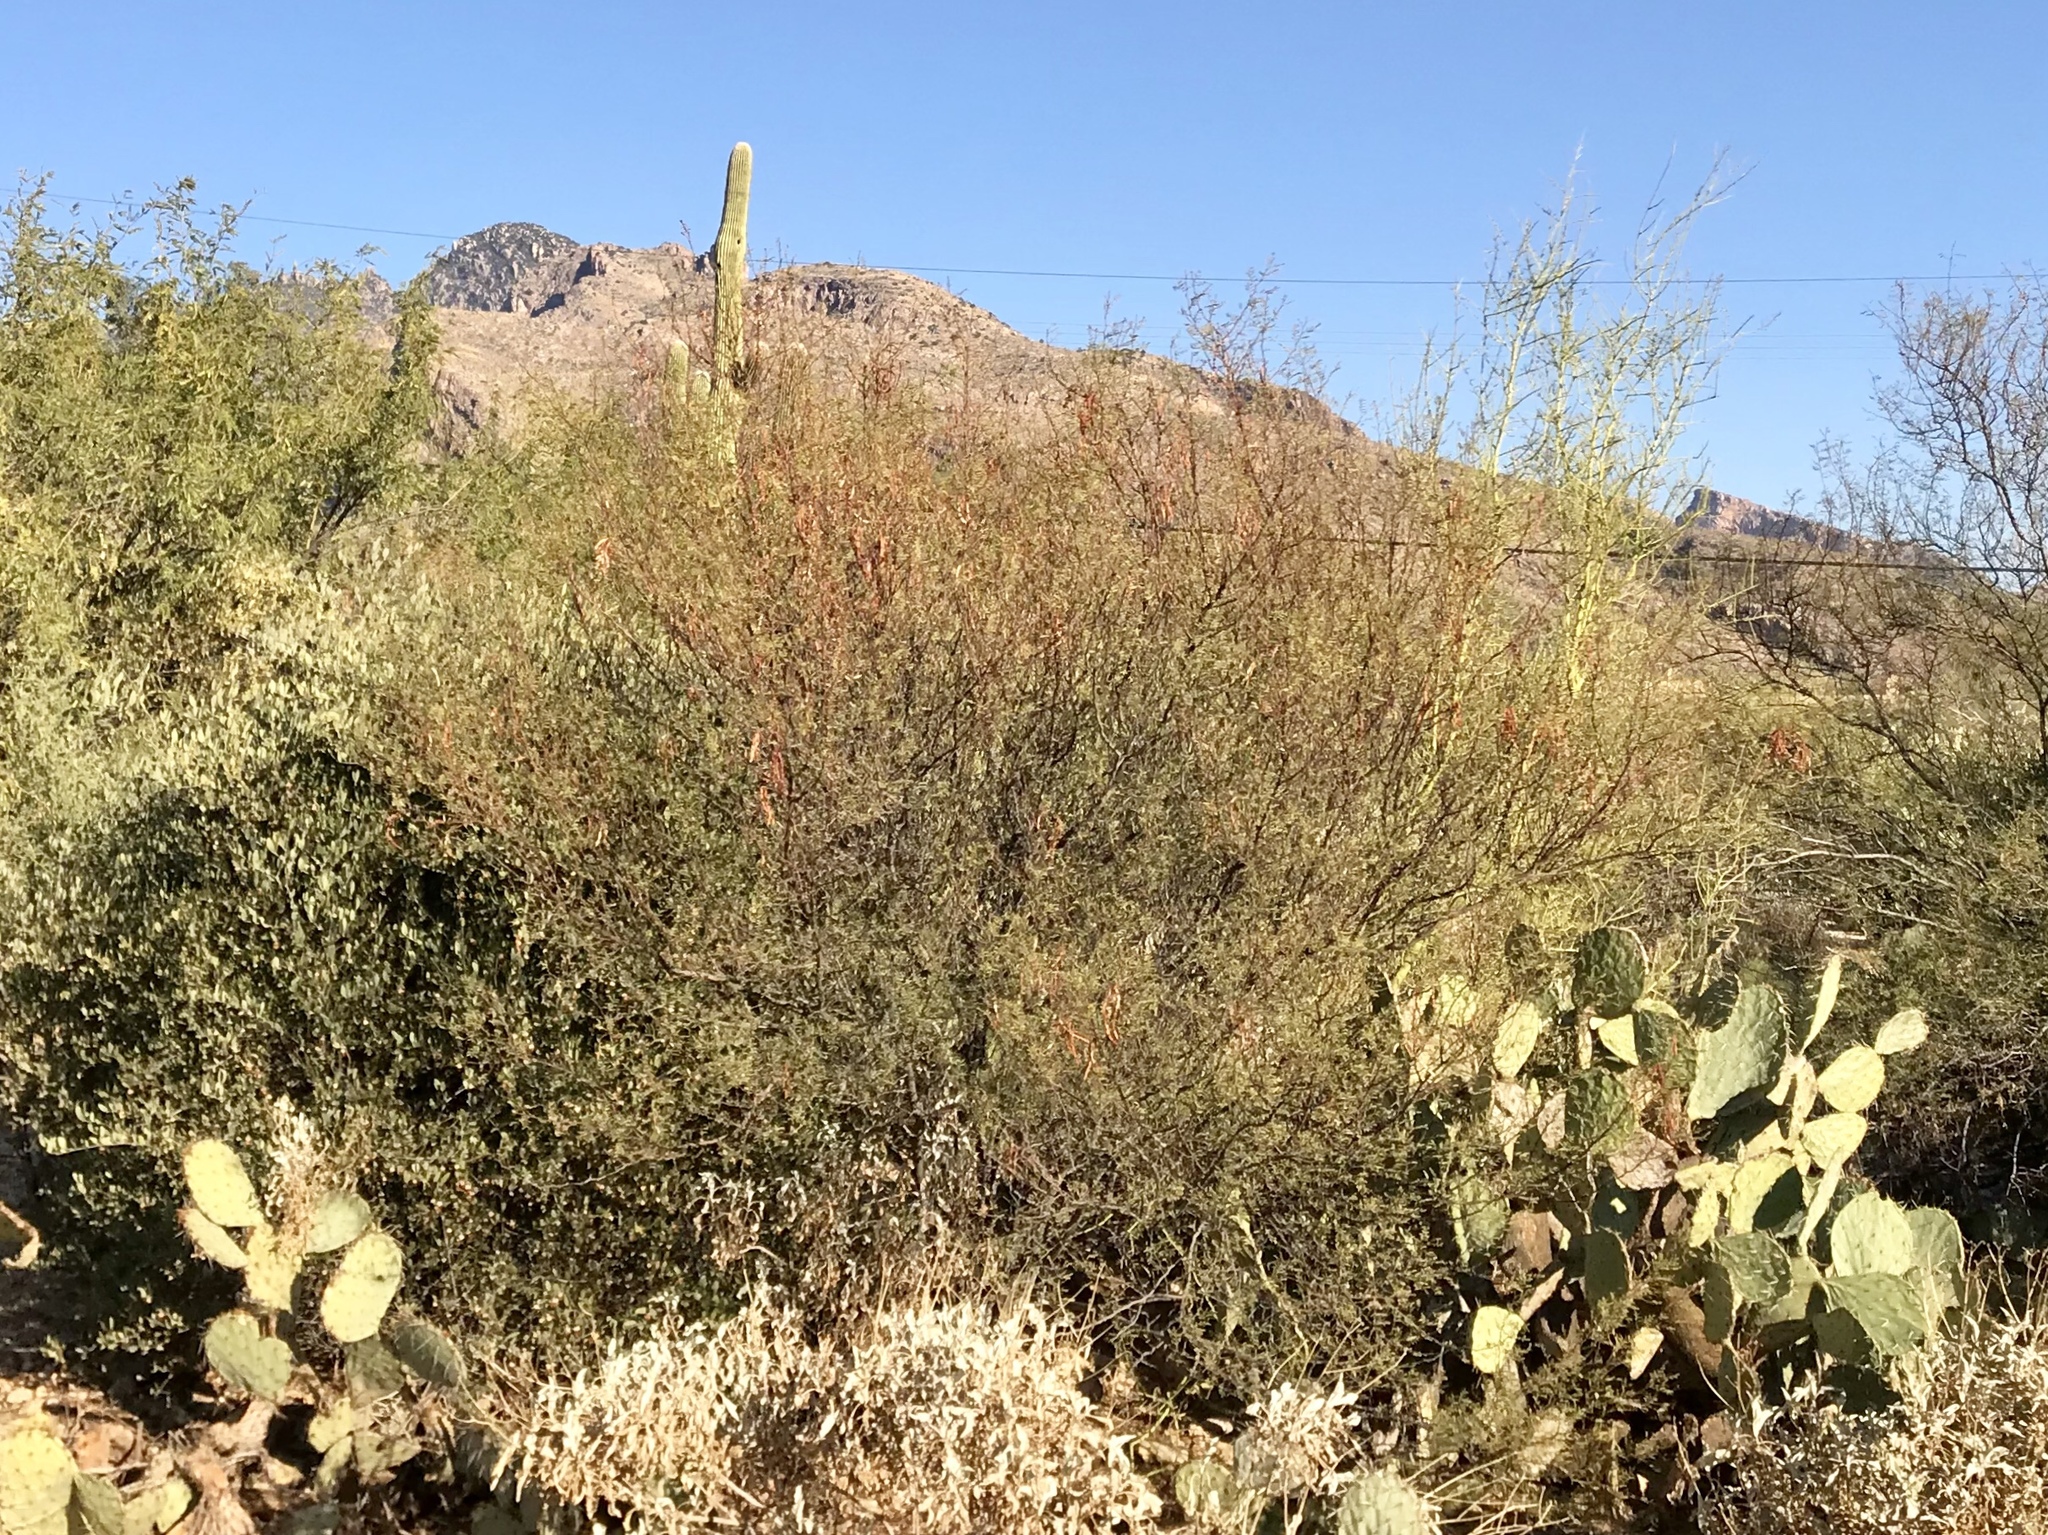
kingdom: Plantae
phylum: Tracheophyta
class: Magnoliopsida
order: Fabales
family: Fabaceae
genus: Vachellia
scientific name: Vachellia constricta
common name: Mescat acacia
